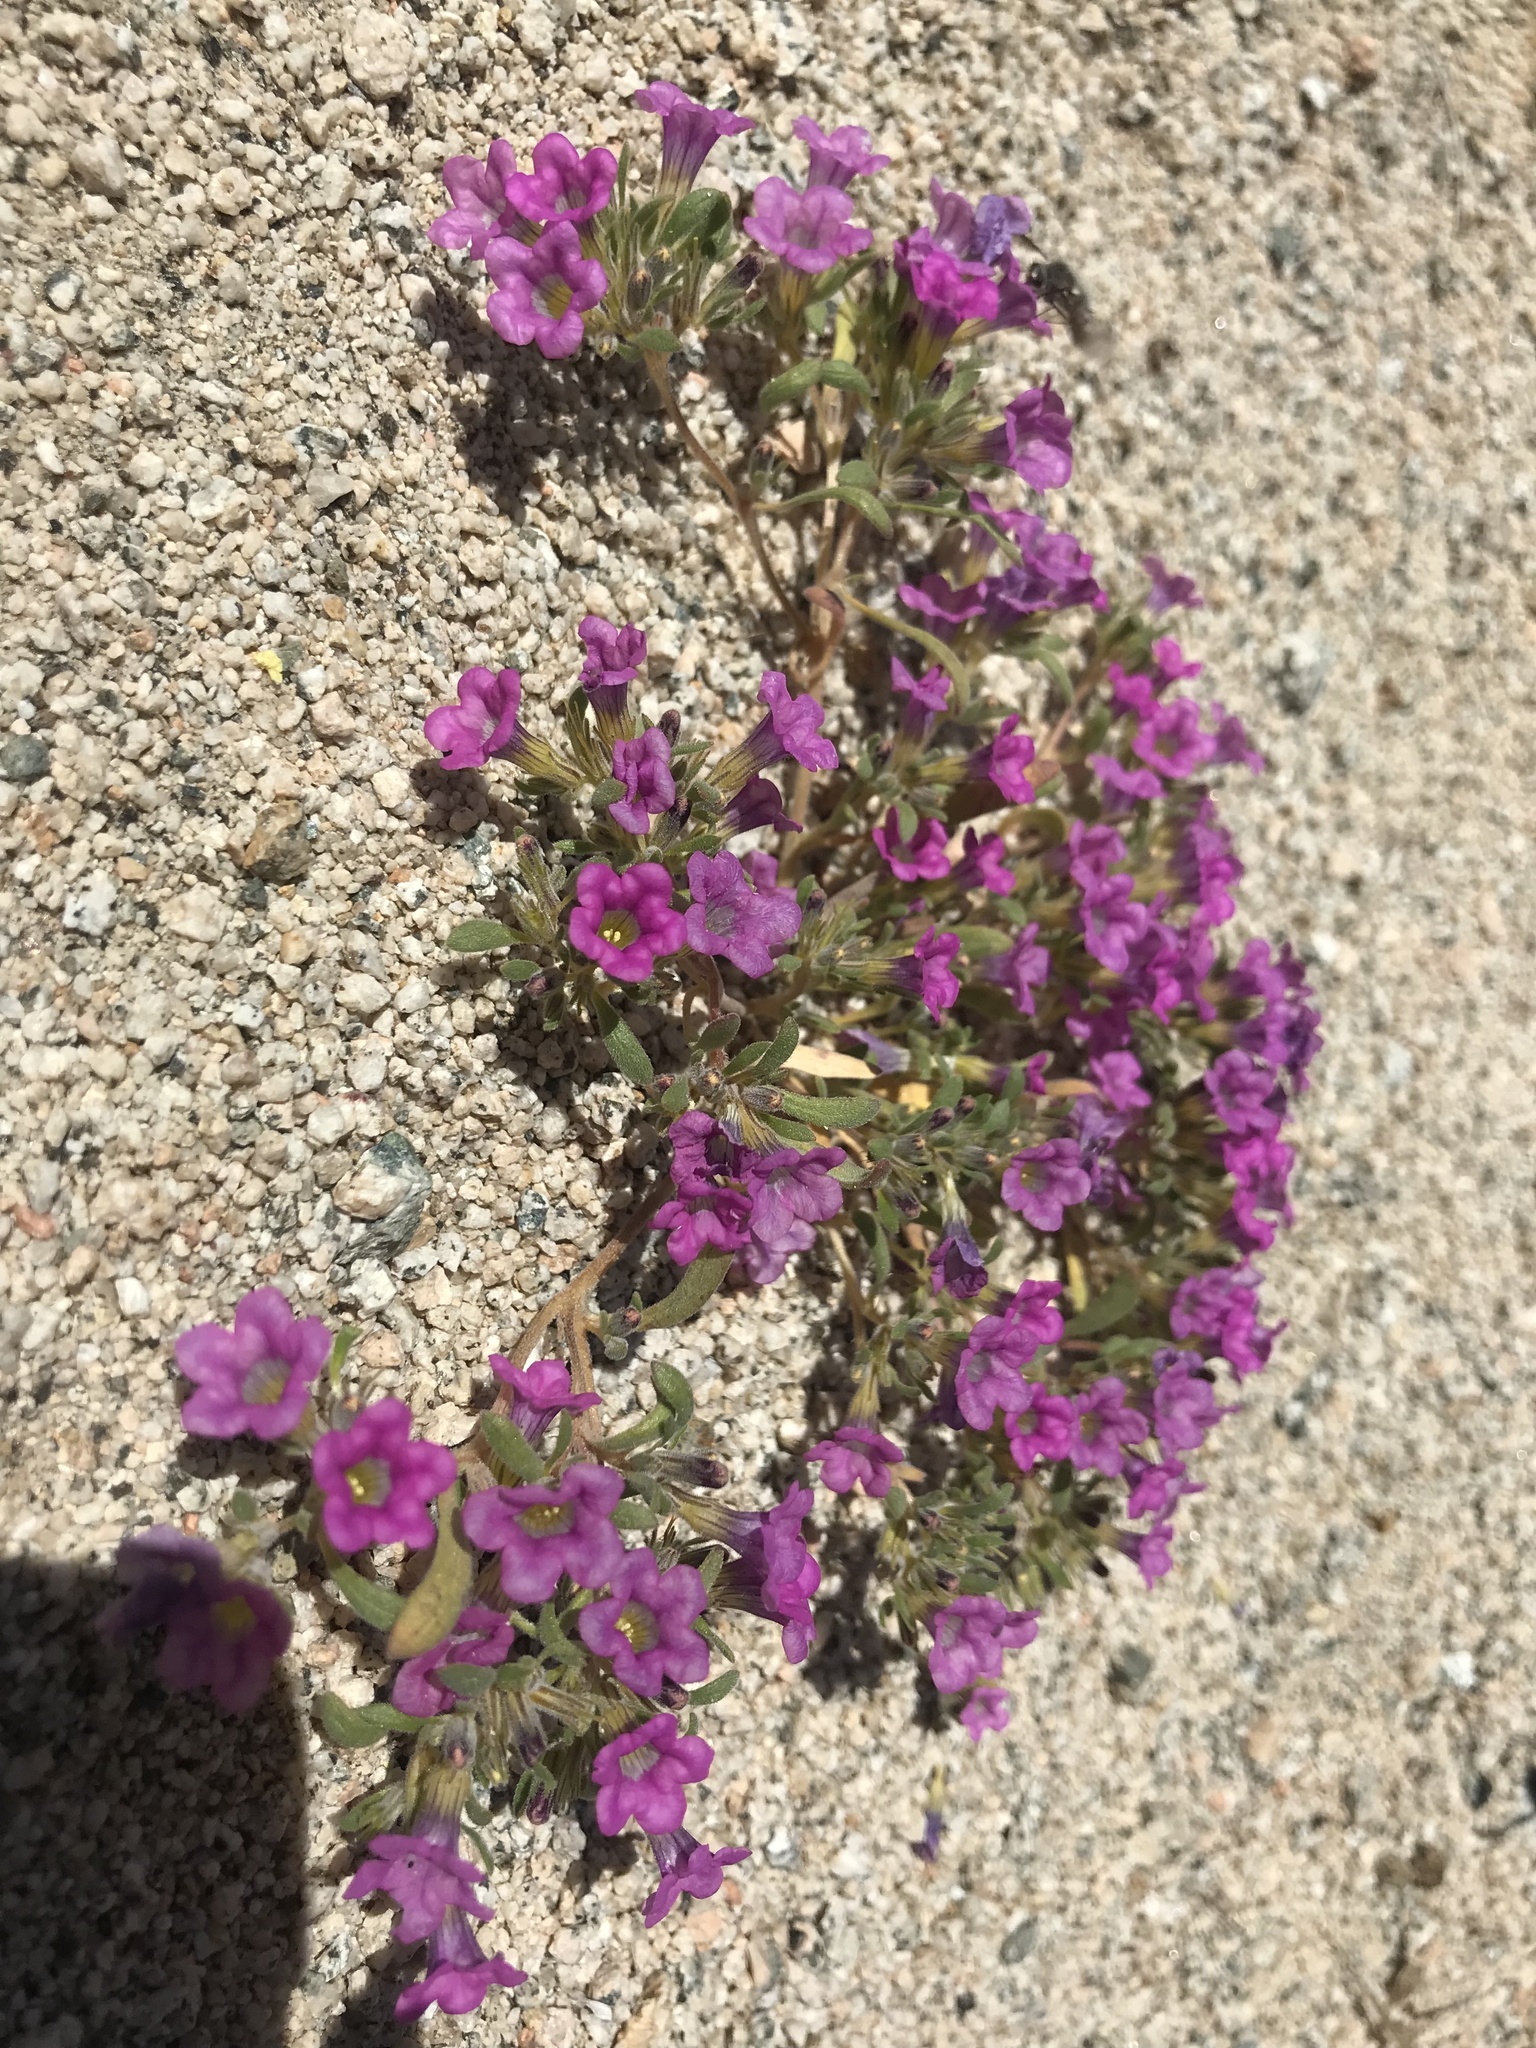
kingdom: Plantae
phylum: Tracheophyta
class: Magnoliopsida
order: Boraginales
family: Namaceae
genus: Nama
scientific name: Nama demissa
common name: Leafy nama
